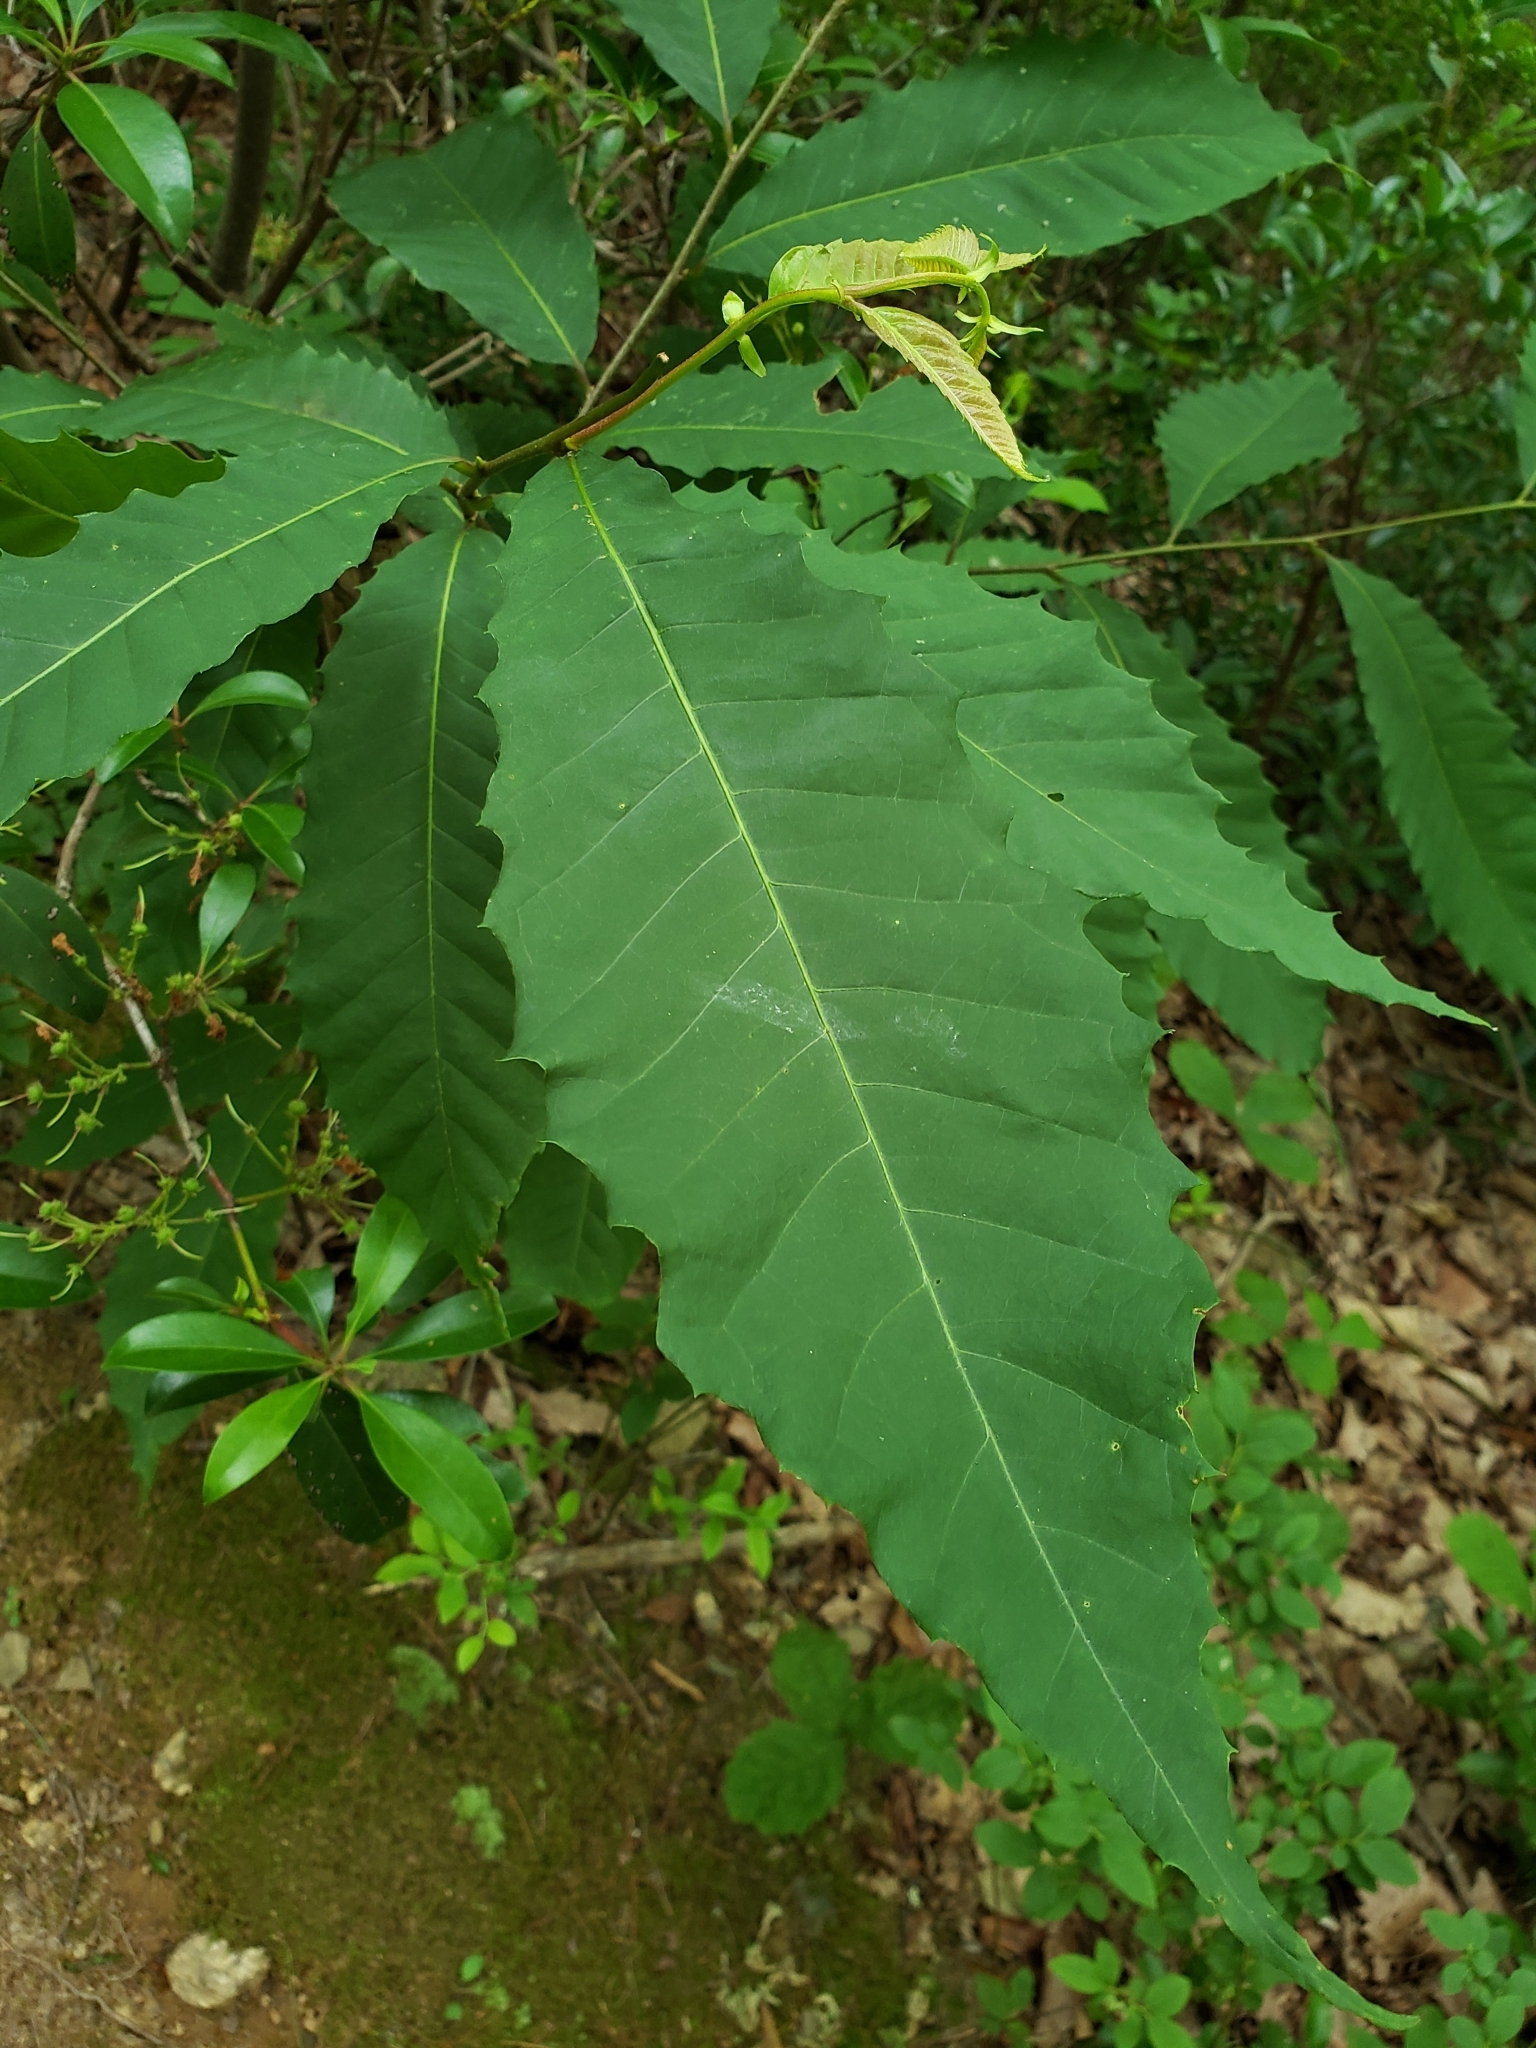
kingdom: Plantae
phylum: Tracheophyta
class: Magnoliopsida
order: Fagales
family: Fagaceae
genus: Castanea
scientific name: Castanea dentata
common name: American chestnut
